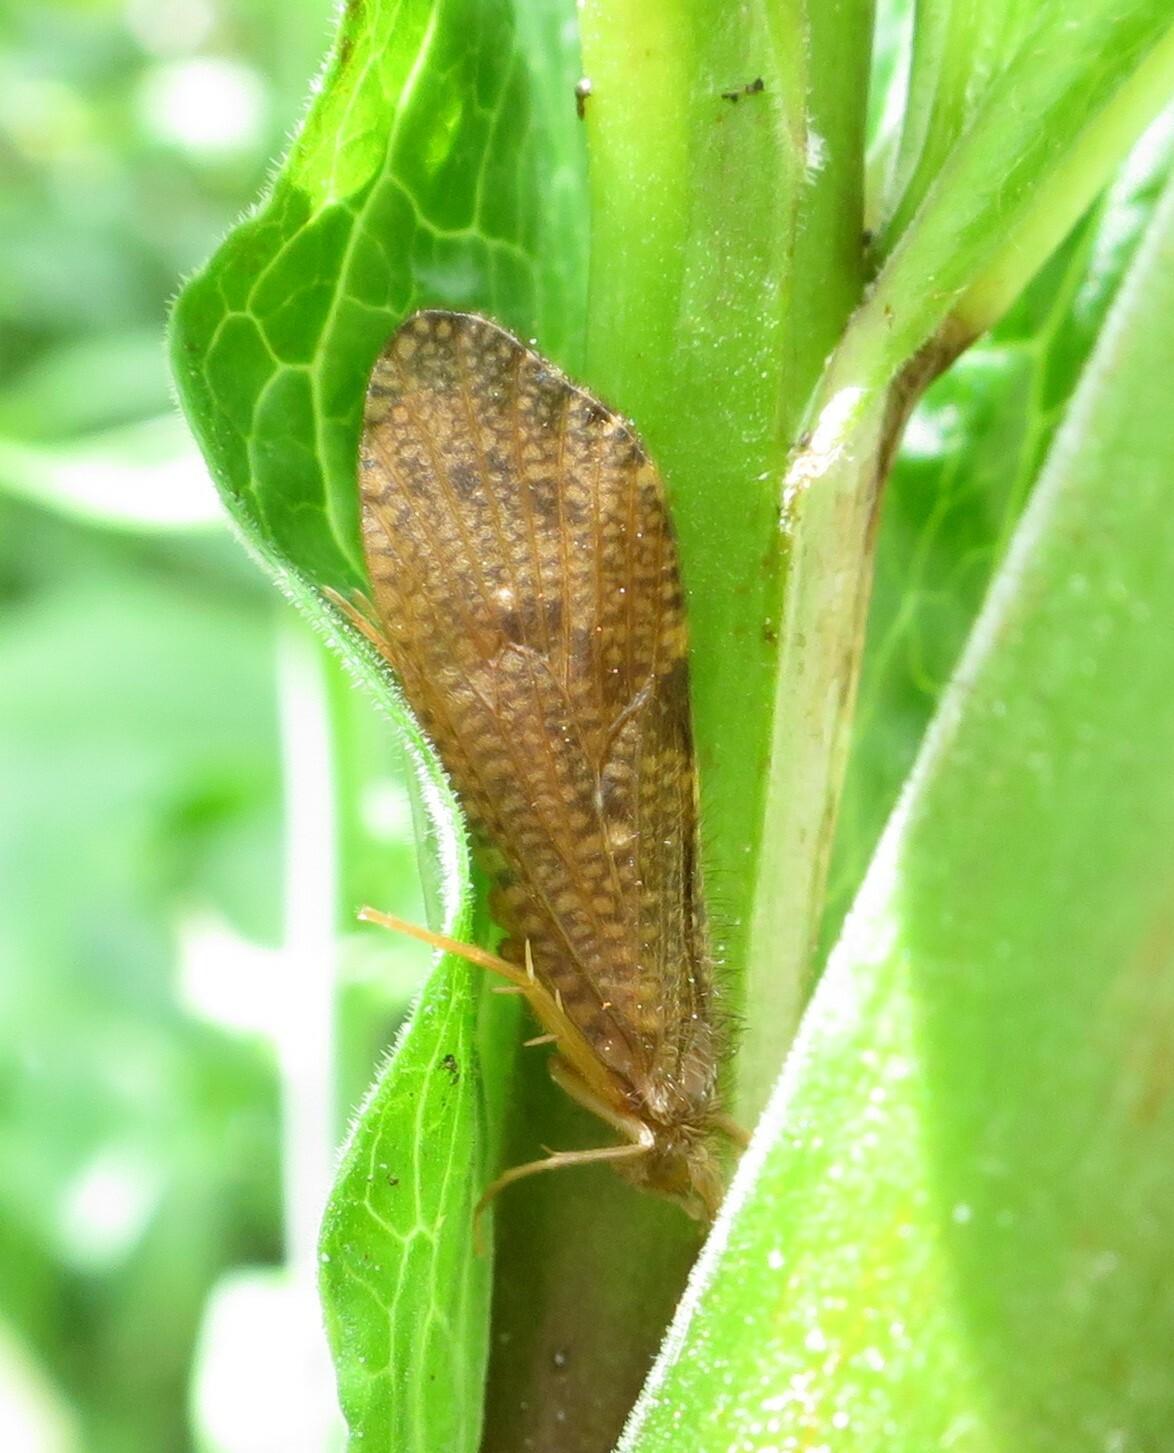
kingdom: Animalia
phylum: Arthropoda
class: Insecta
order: Trichoptera
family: Oeconesidae
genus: Oeconesus
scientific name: Oeconesus maori
